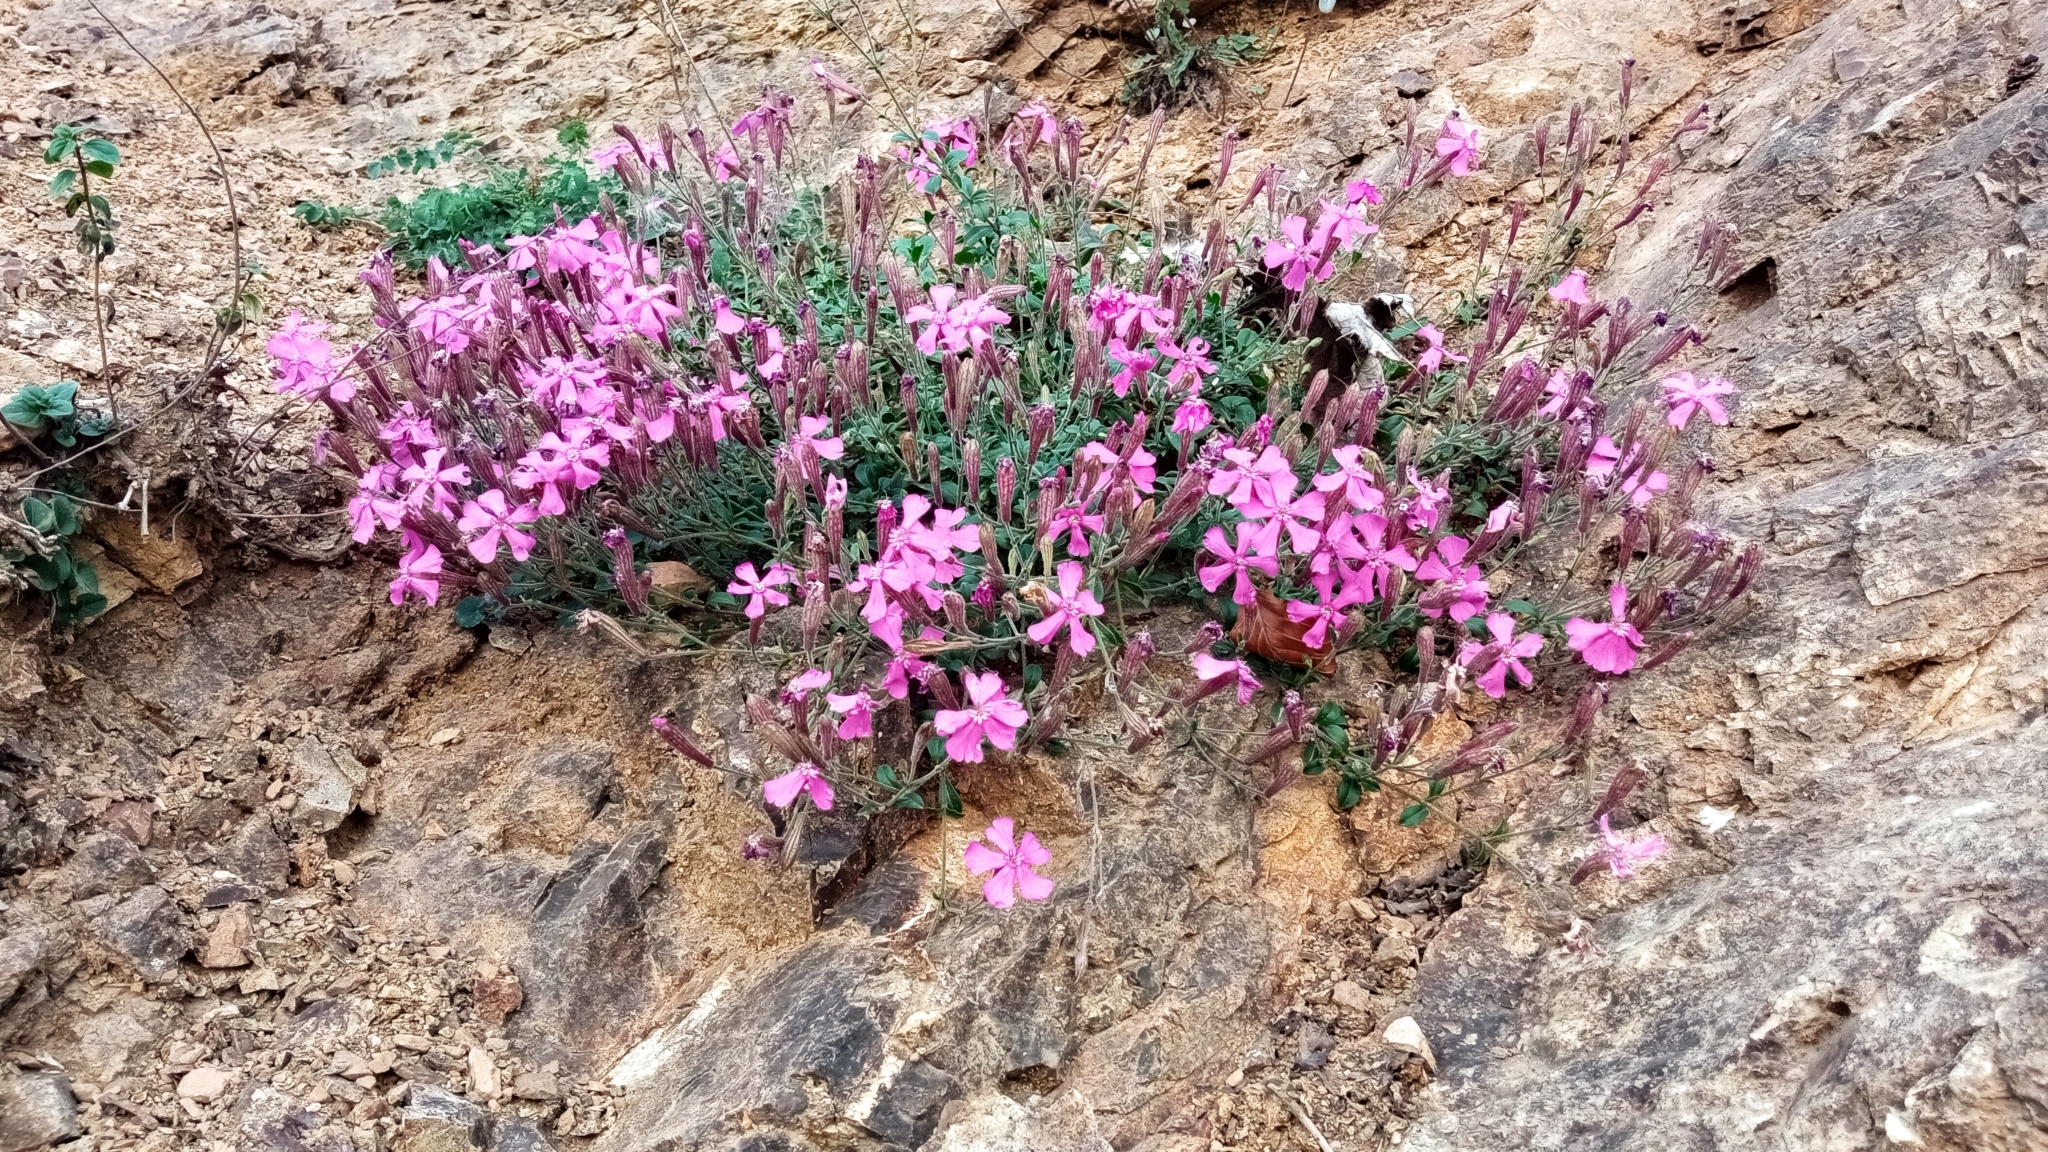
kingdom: Plantae
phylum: Tracheophyta
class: Magnoliopsida
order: Caryophyllales
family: Caryophyllaceae
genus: Atocion
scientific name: Atocion armeria
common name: Sweet william catchfly
